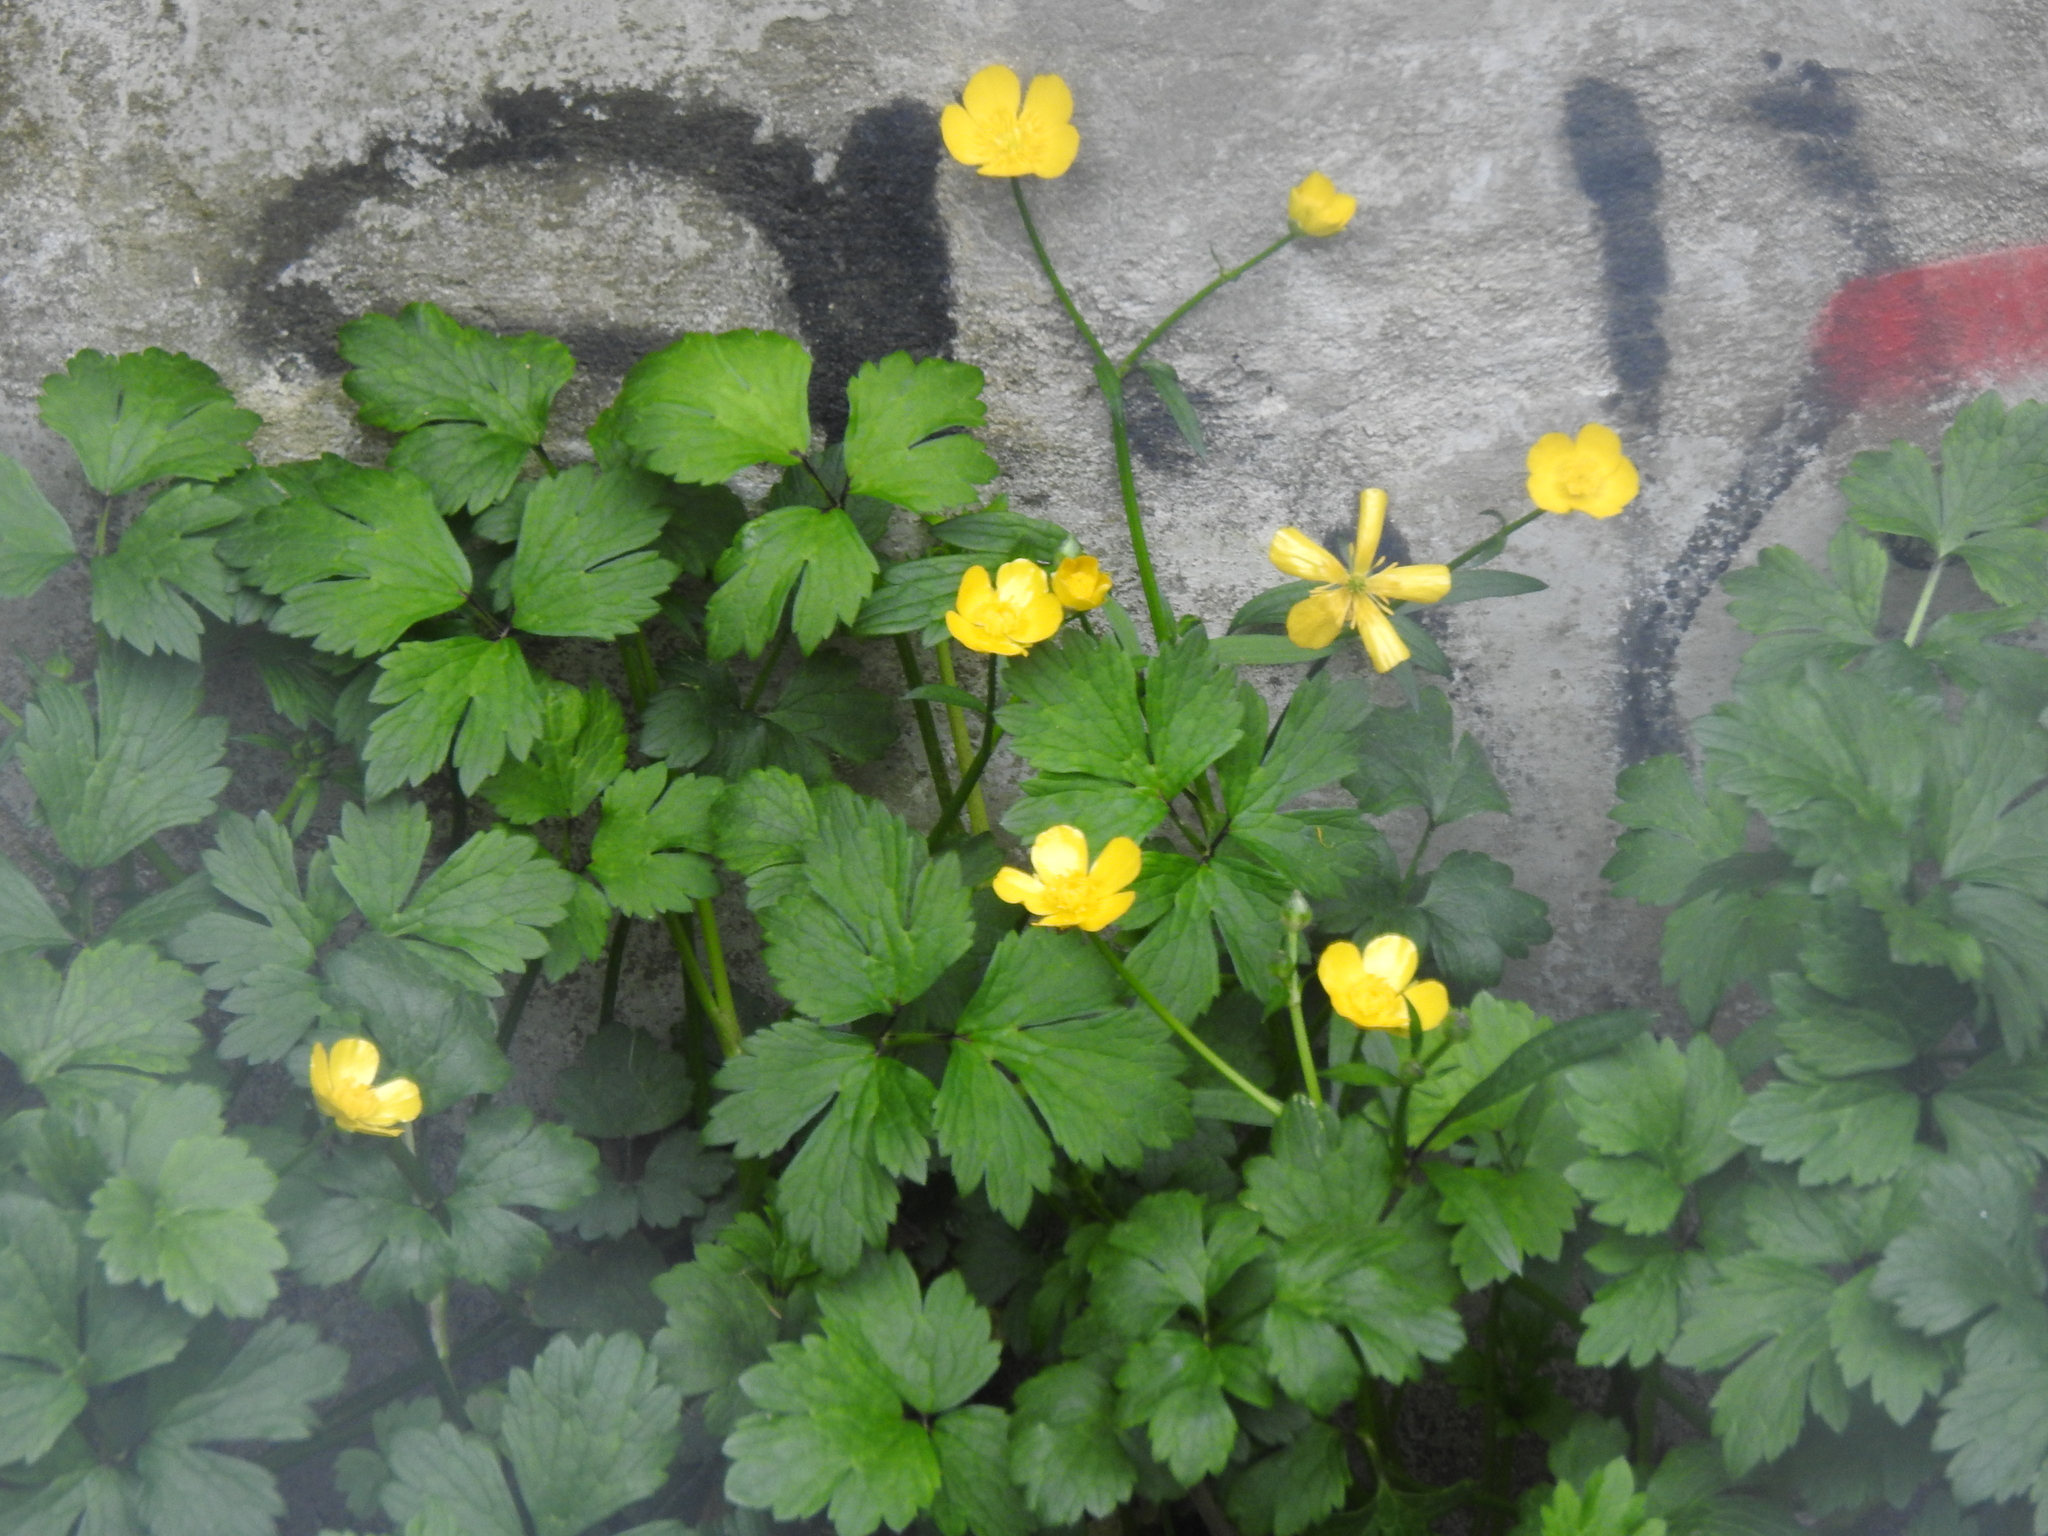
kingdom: Plantae
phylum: Tracheophyta
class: Magnoliopsida
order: Ranunculales
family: Ranunculaceae
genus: Ranunculus
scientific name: Ranunculus repens
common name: Creeping buttercup
